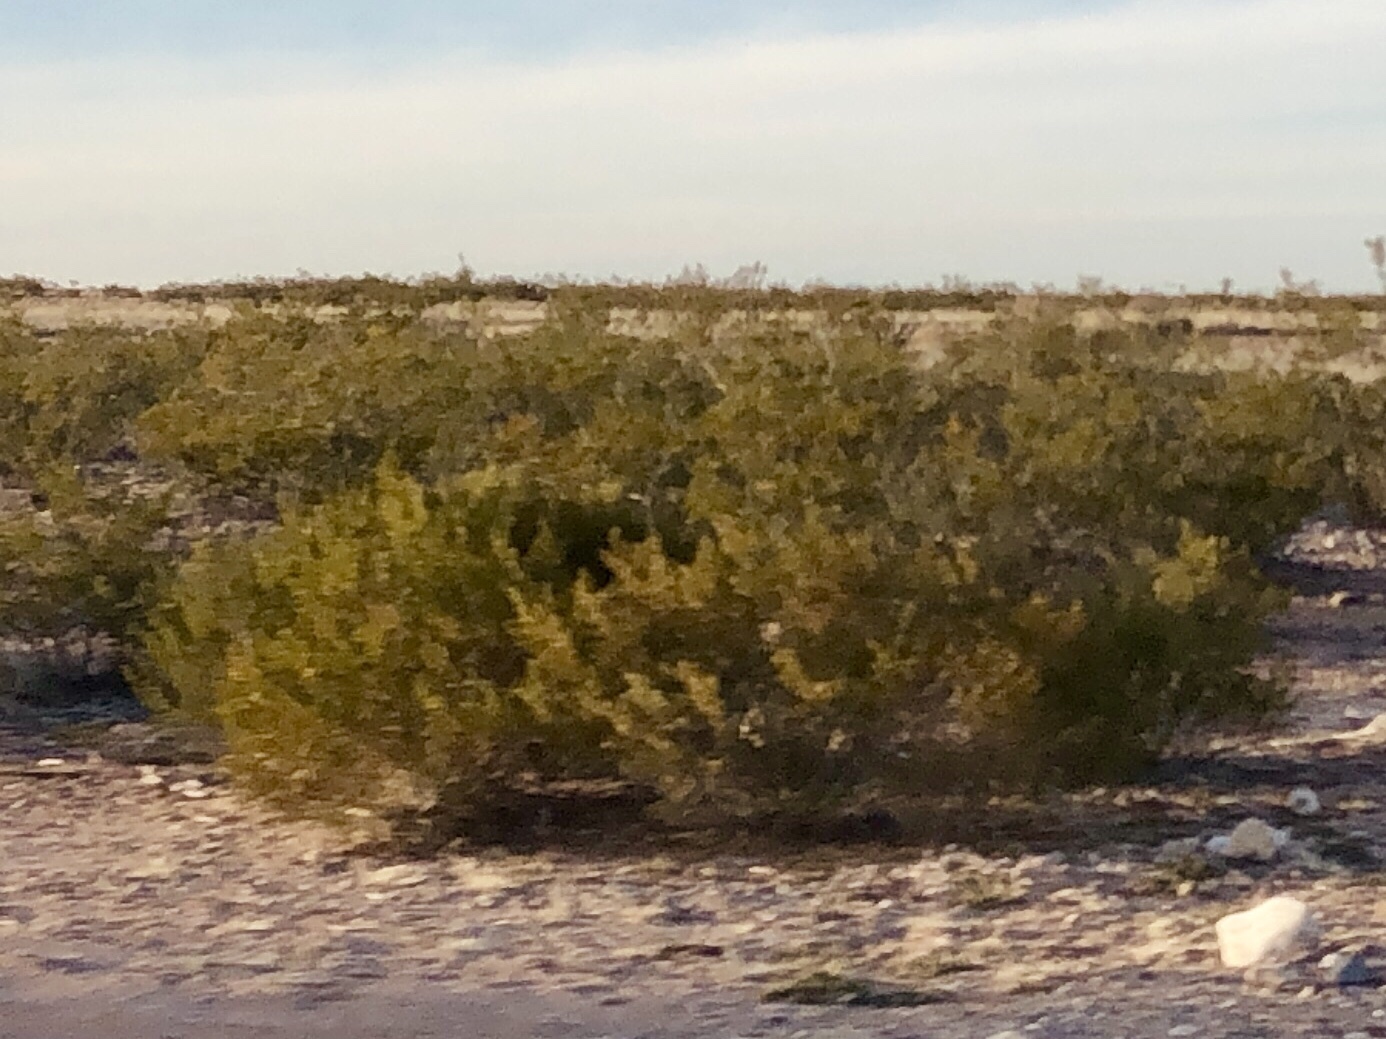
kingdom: Plantae
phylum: Tracheophyta
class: Magnoliopsida
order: Zygophyllales
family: Zygophyllaceae
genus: Larrea
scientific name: Larrea tridentata
